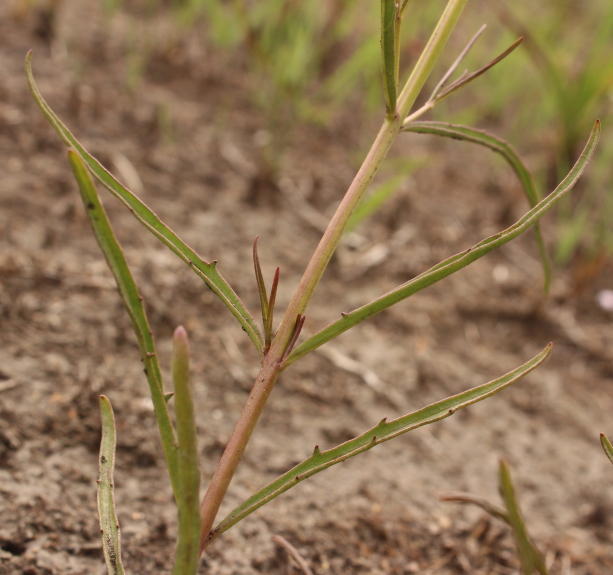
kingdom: Plantae
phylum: Tracheophyta
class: Magnoliopsida
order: Lamiales
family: Orobanchaceae
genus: Cycnium
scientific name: Cycnium tubulosum
